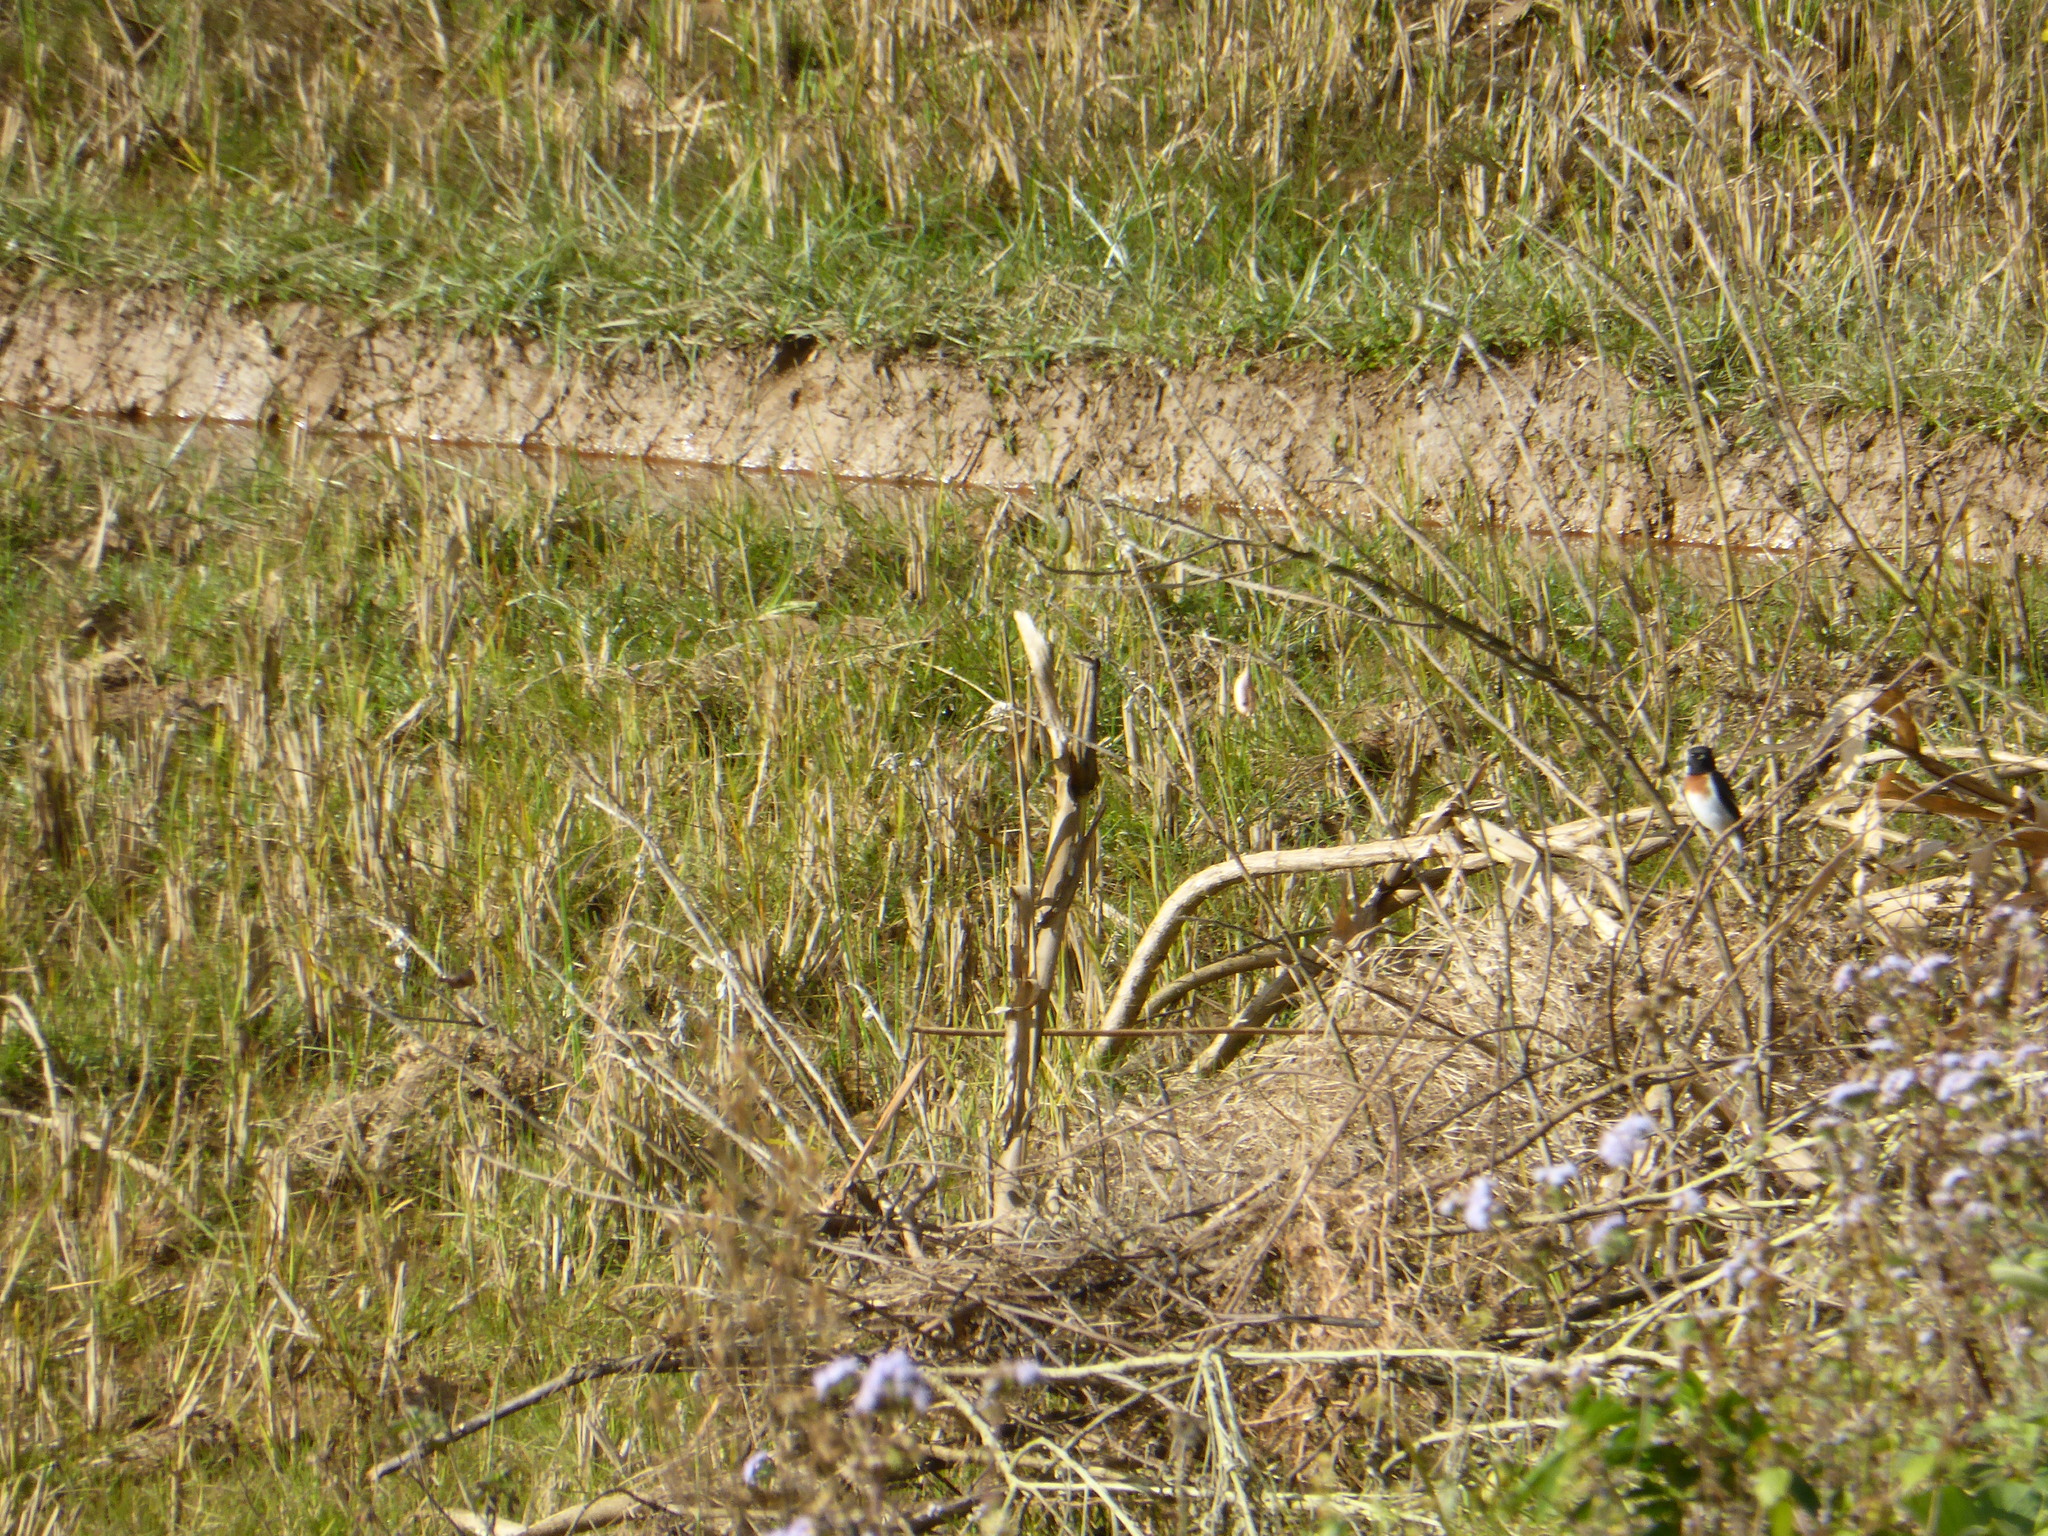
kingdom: Animalia
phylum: Chordata
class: Aves
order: Passeriformes
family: Muscicapidae
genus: Saxicola
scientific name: Saxicola torquatus
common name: African stonechat
